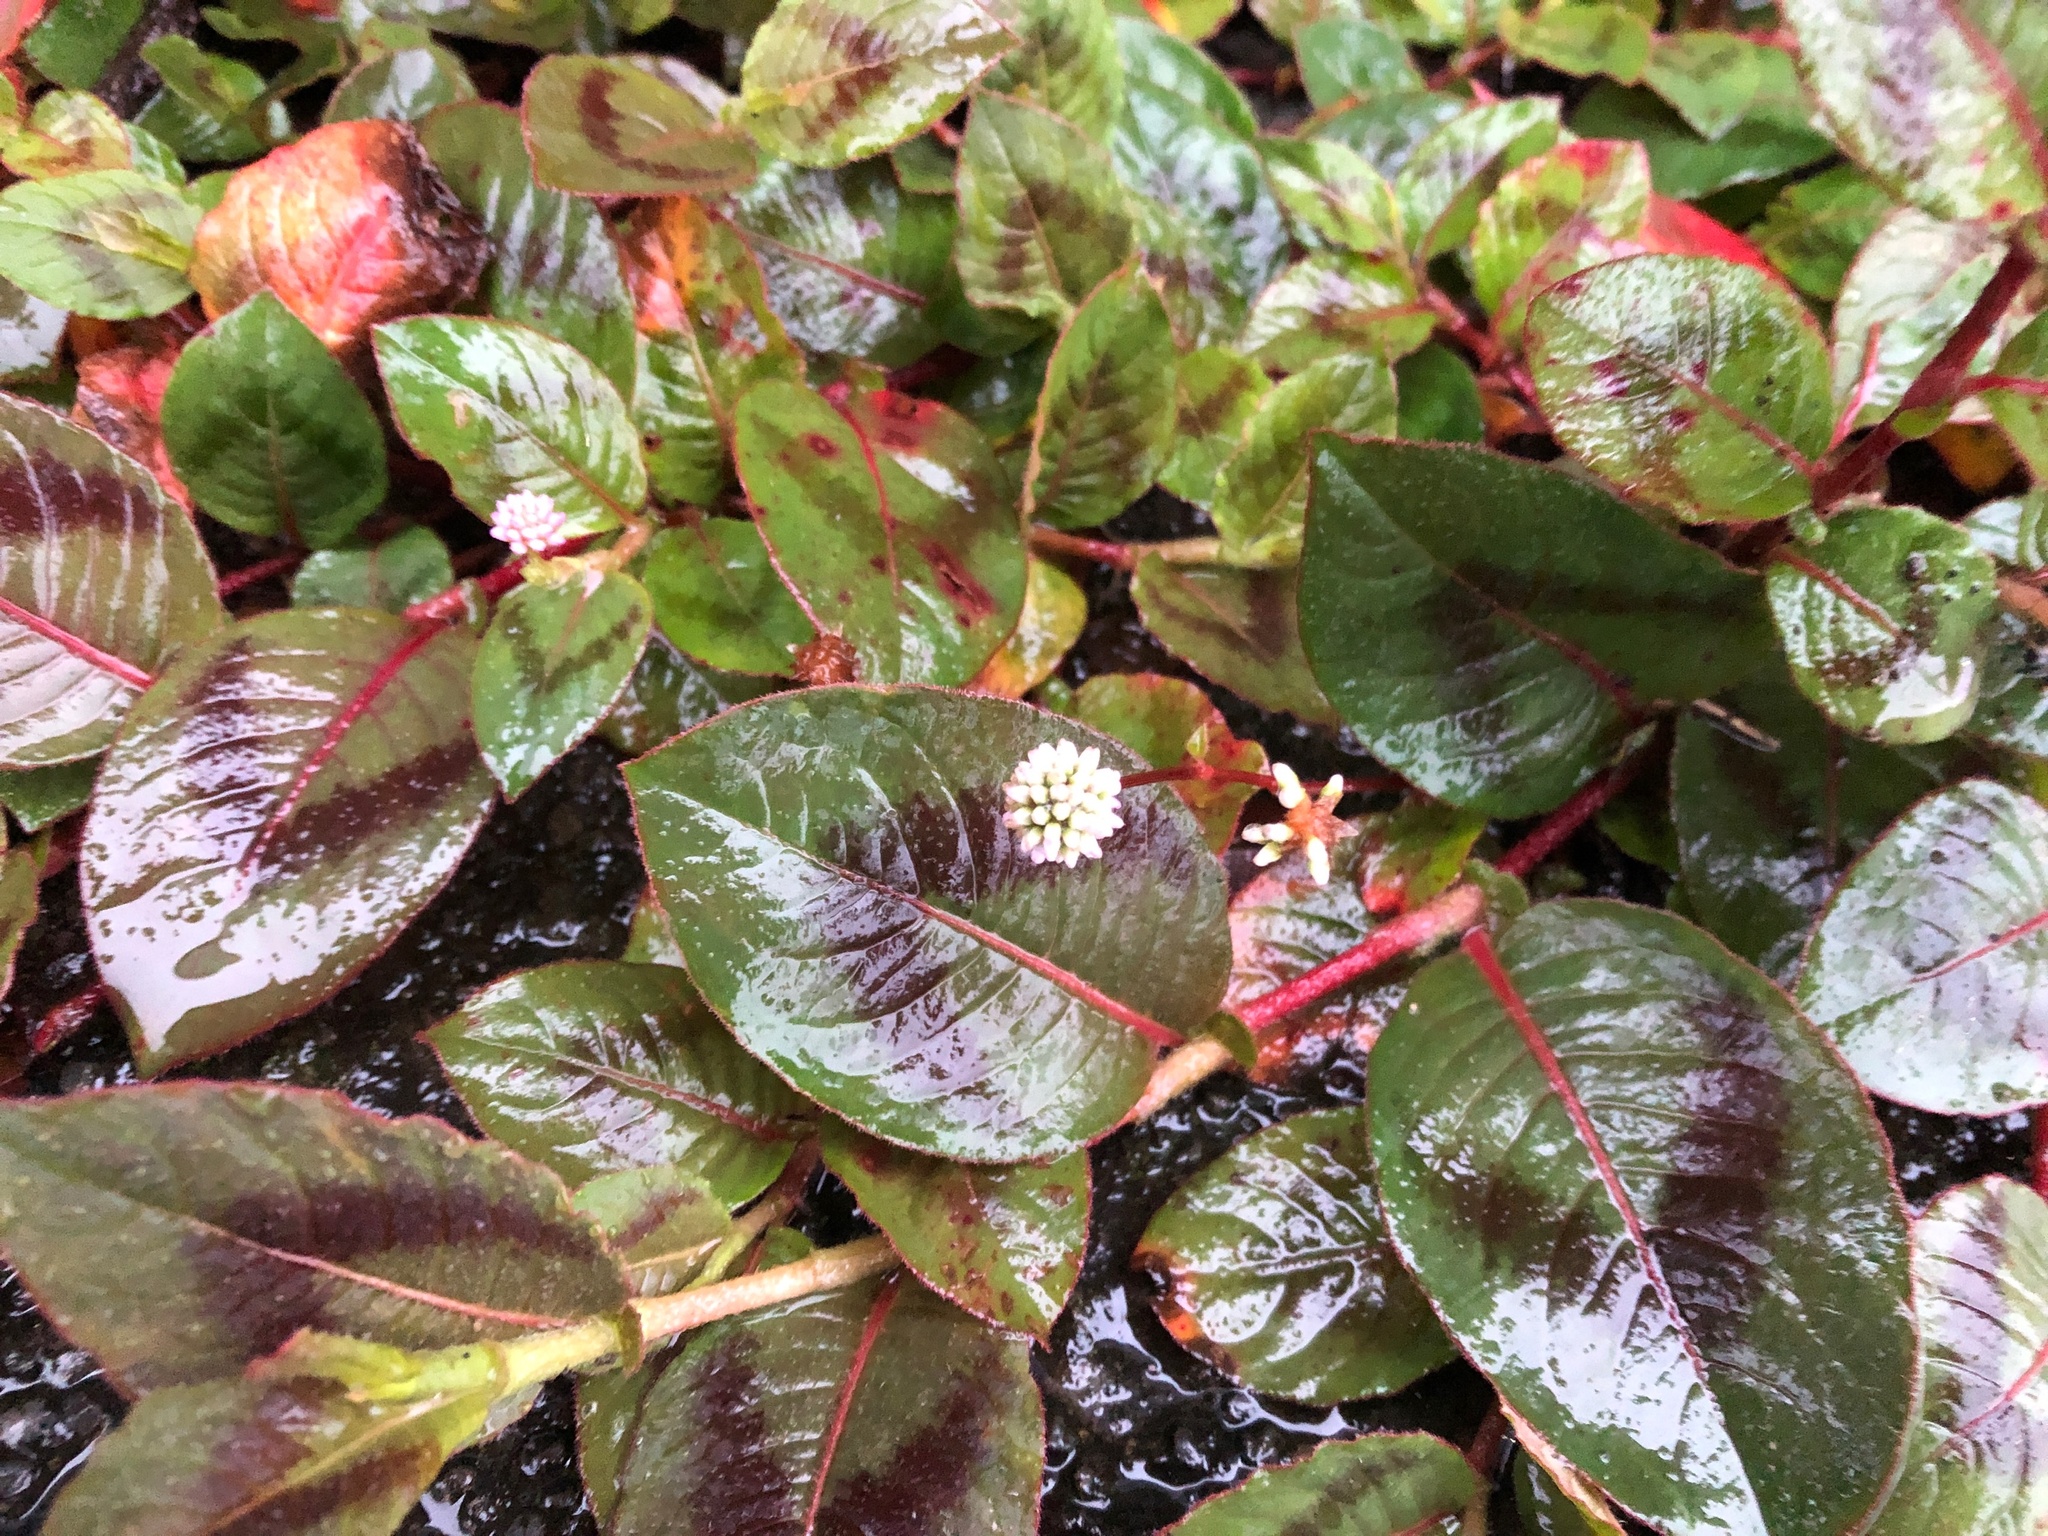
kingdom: Plantae
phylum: Tracheophyta
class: Magnoliopsida
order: Caryophyllales
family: Polygonaceae
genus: Persicaria
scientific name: Persicaria capitata
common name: Pinkhead smartweed
